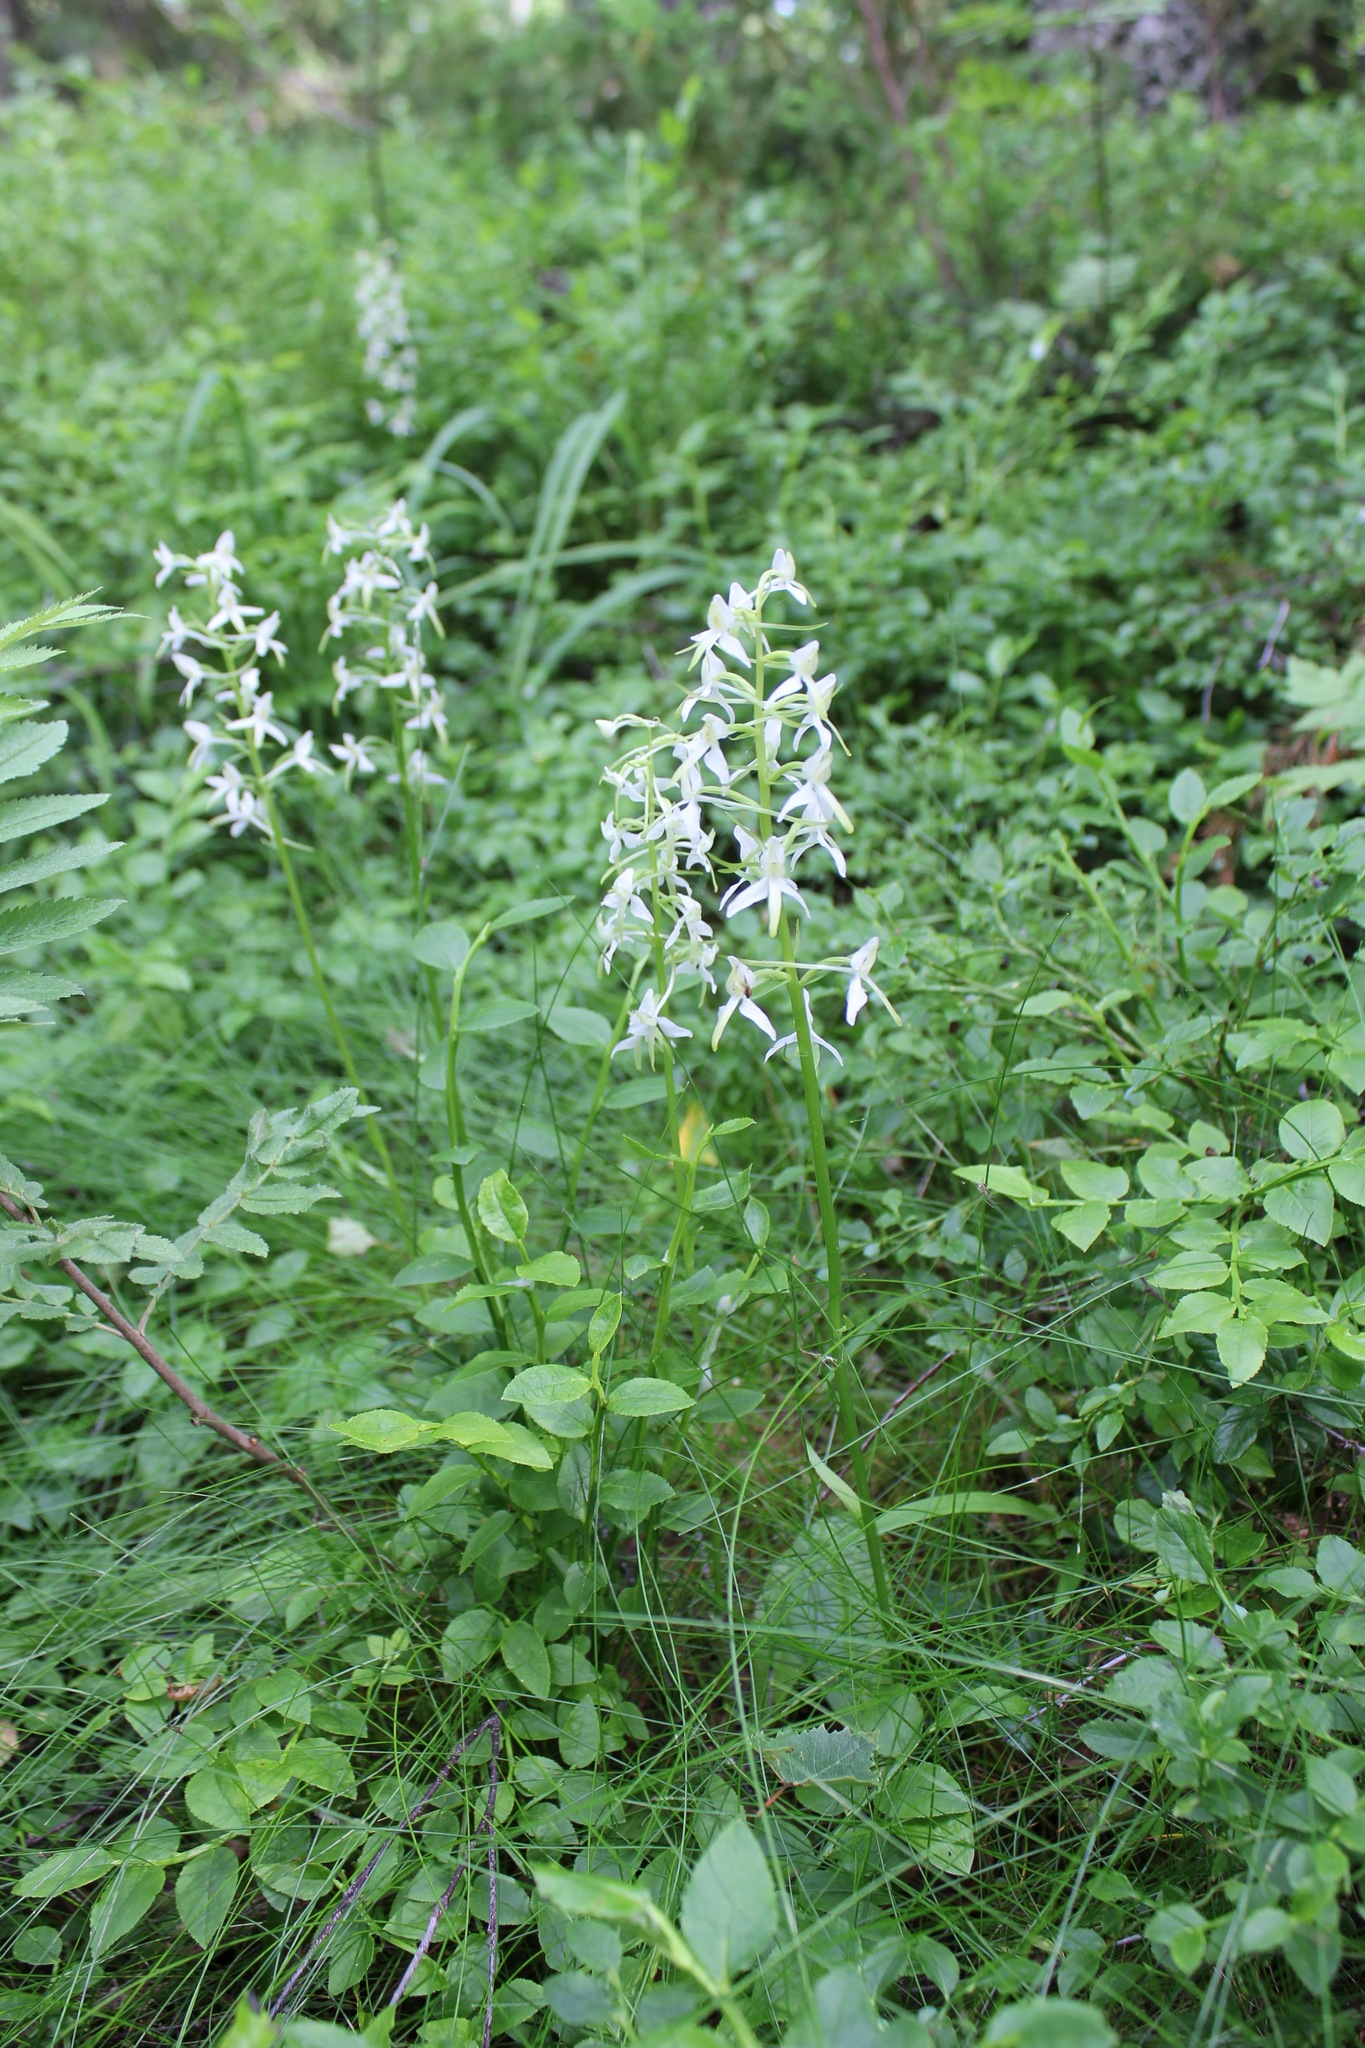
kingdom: Plantae
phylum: Tracheophyta
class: Liliopsida
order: Asparagales
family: Orchidaceae
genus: Platanthera
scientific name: Platanthera bifolia
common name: Lesser butterfly-orchid
